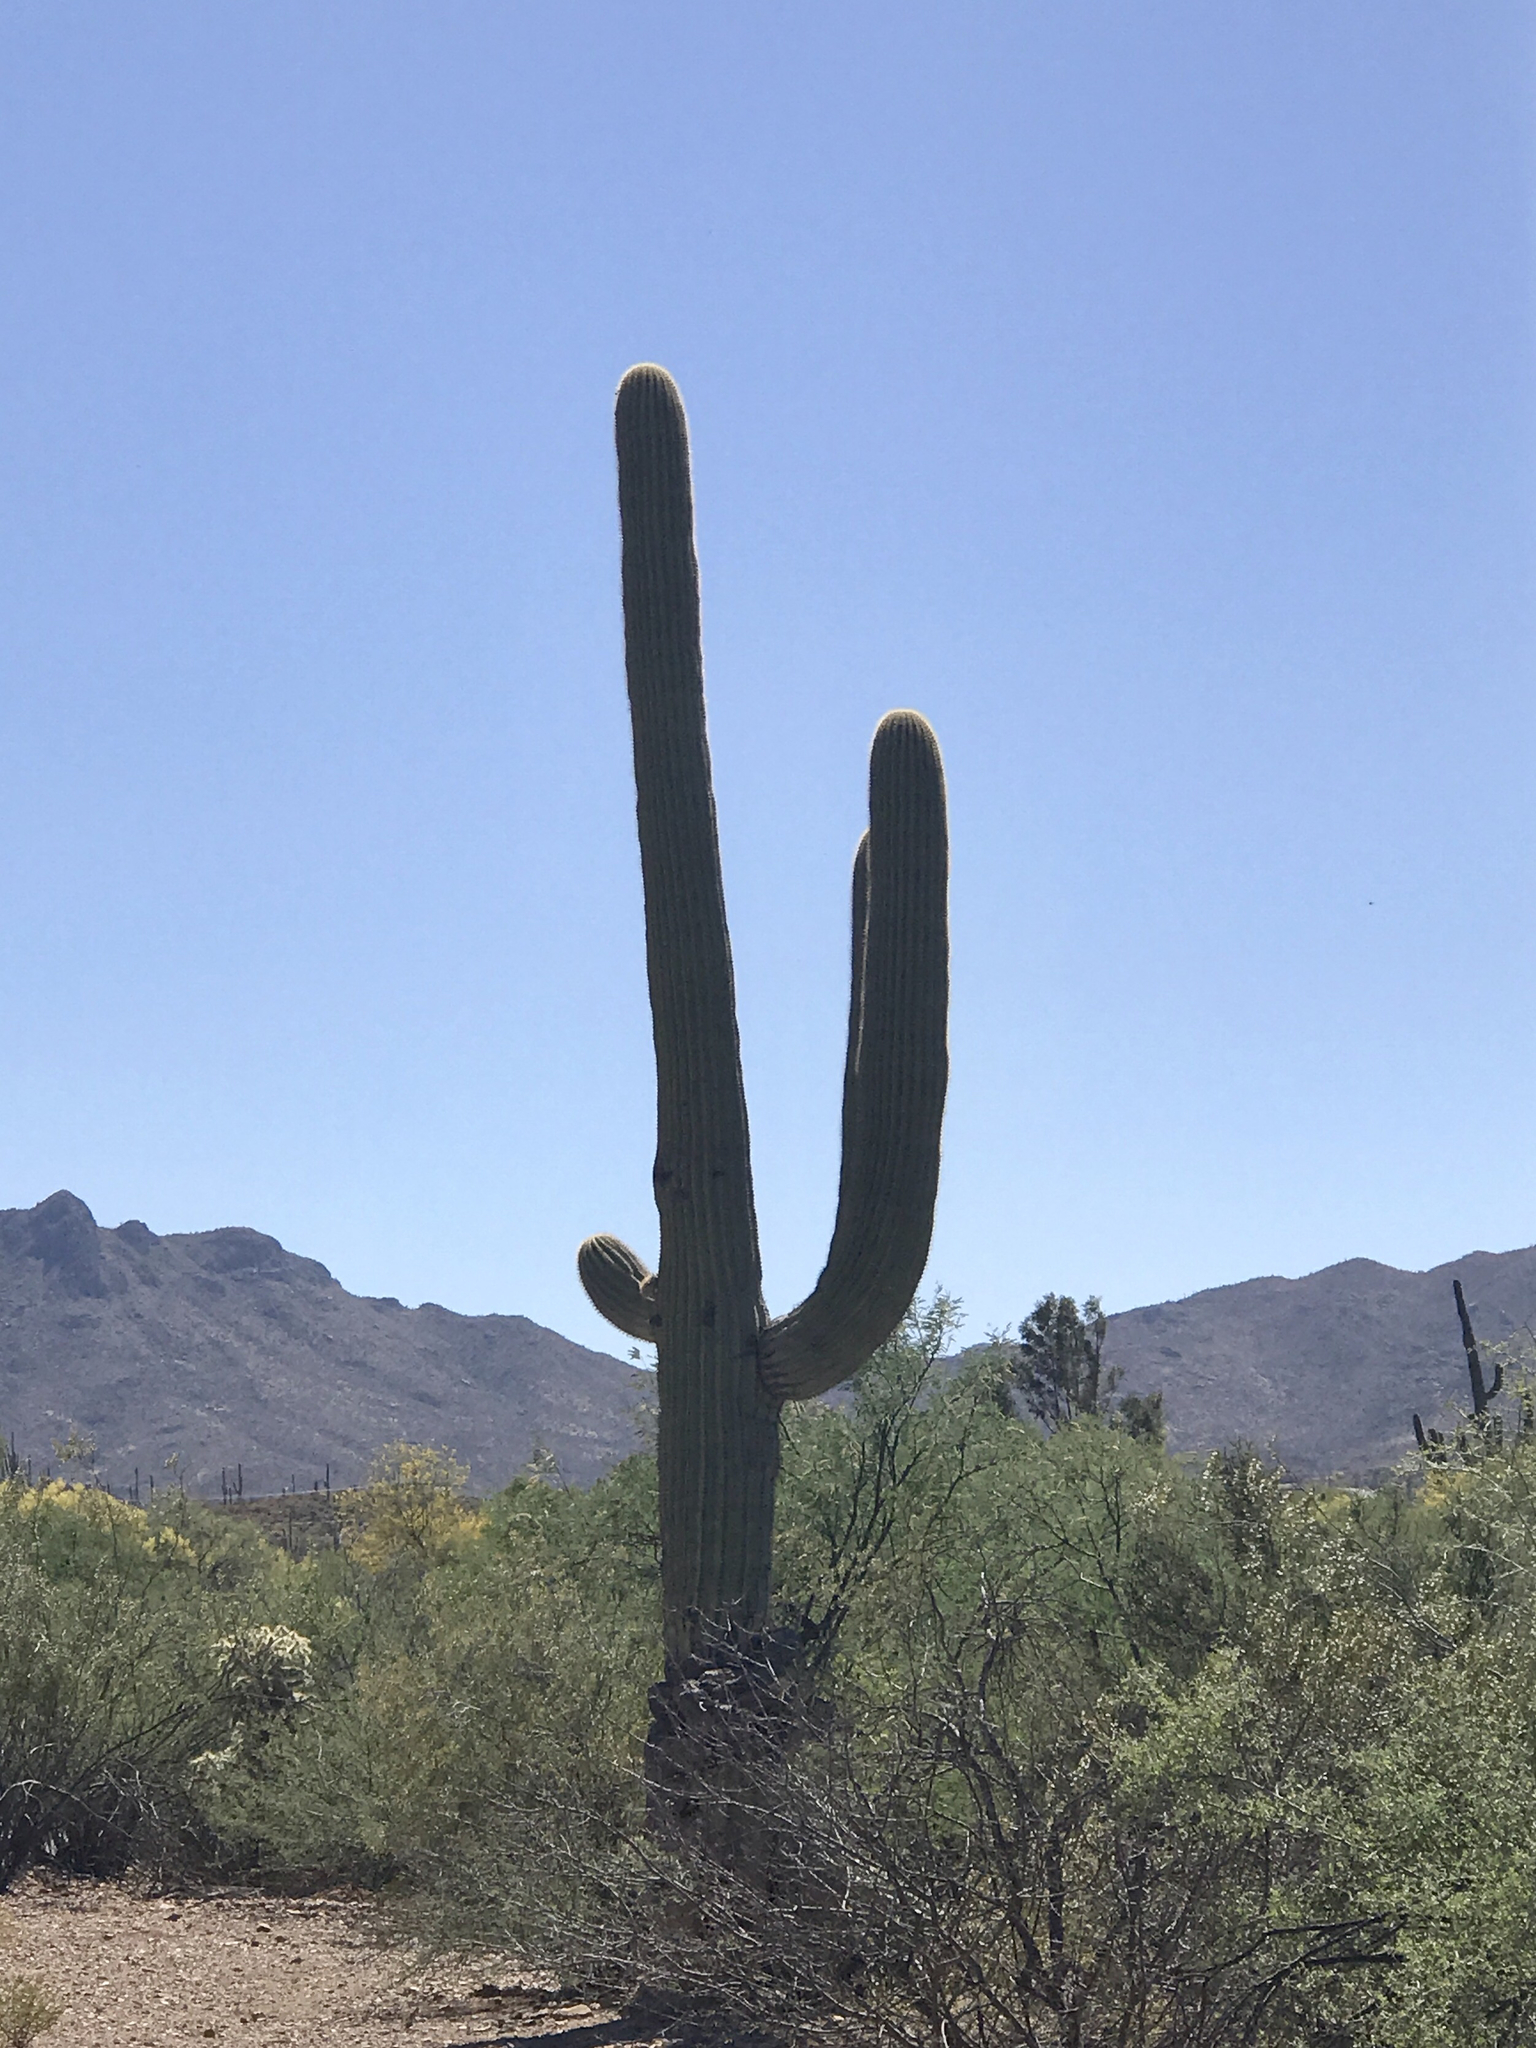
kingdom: Plantae
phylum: Tracheophyta
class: Magnoliopsida
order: Caryophyllales
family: Cactaceae
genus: Carnegiea
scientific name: Carnegiea gigantea
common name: Saguaro
